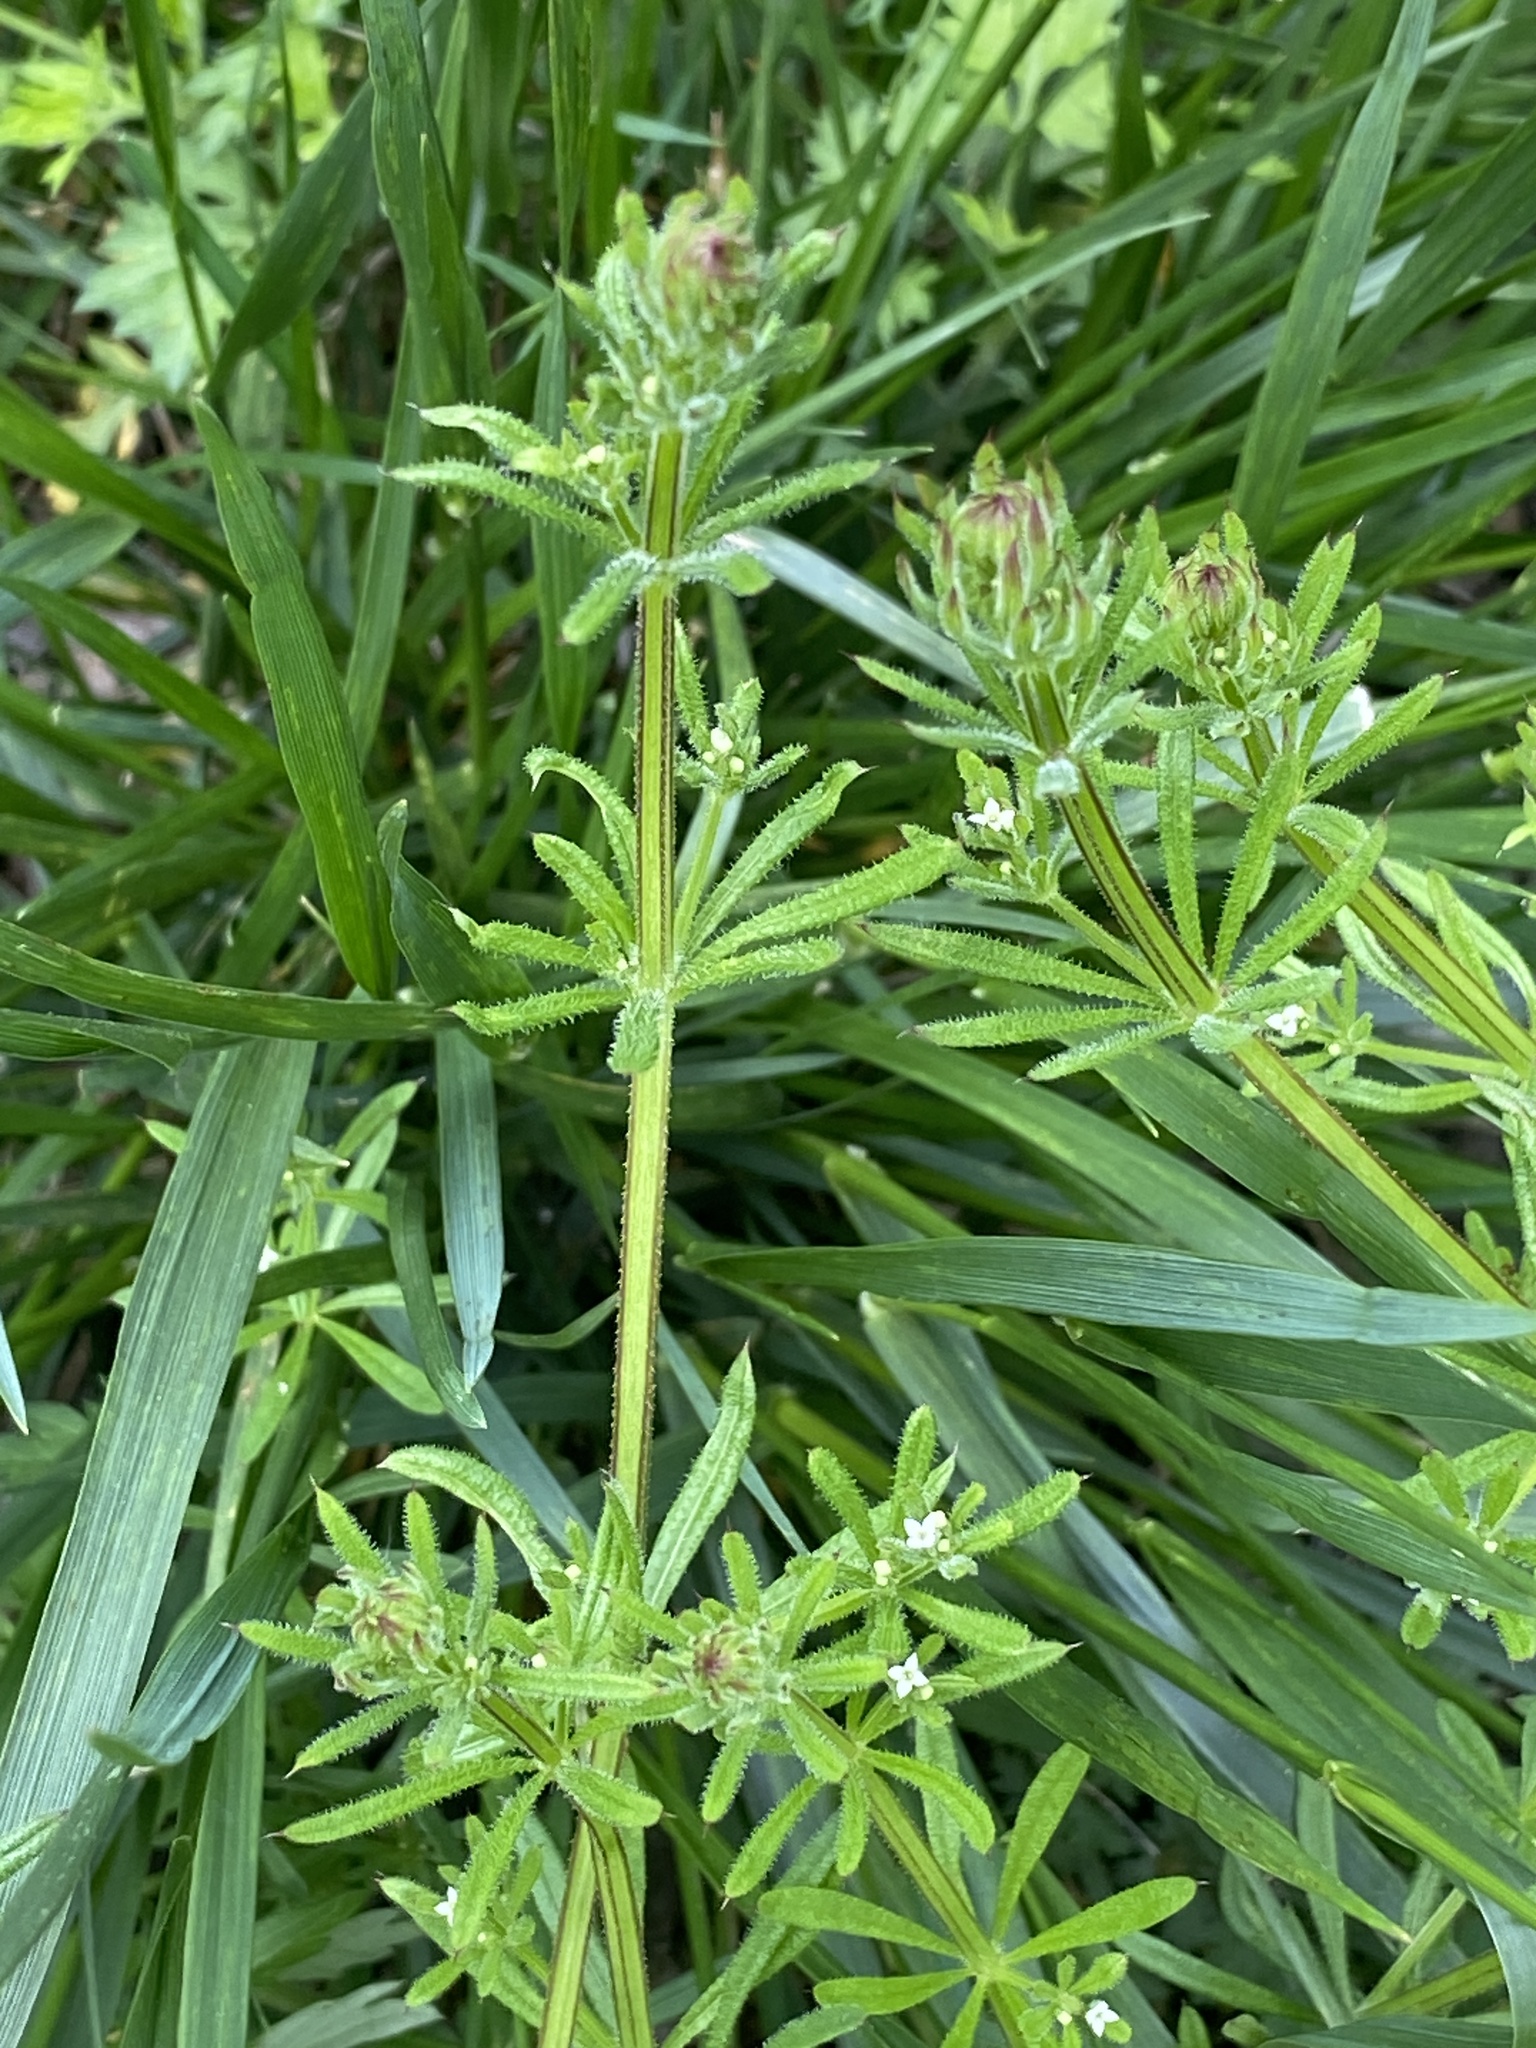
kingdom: Plantae
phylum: Tracheophyta
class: Magnoliopsida
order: Gentianales
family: Rubiaceae
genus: Galium
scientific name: Galium aparine
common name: Cleavers
